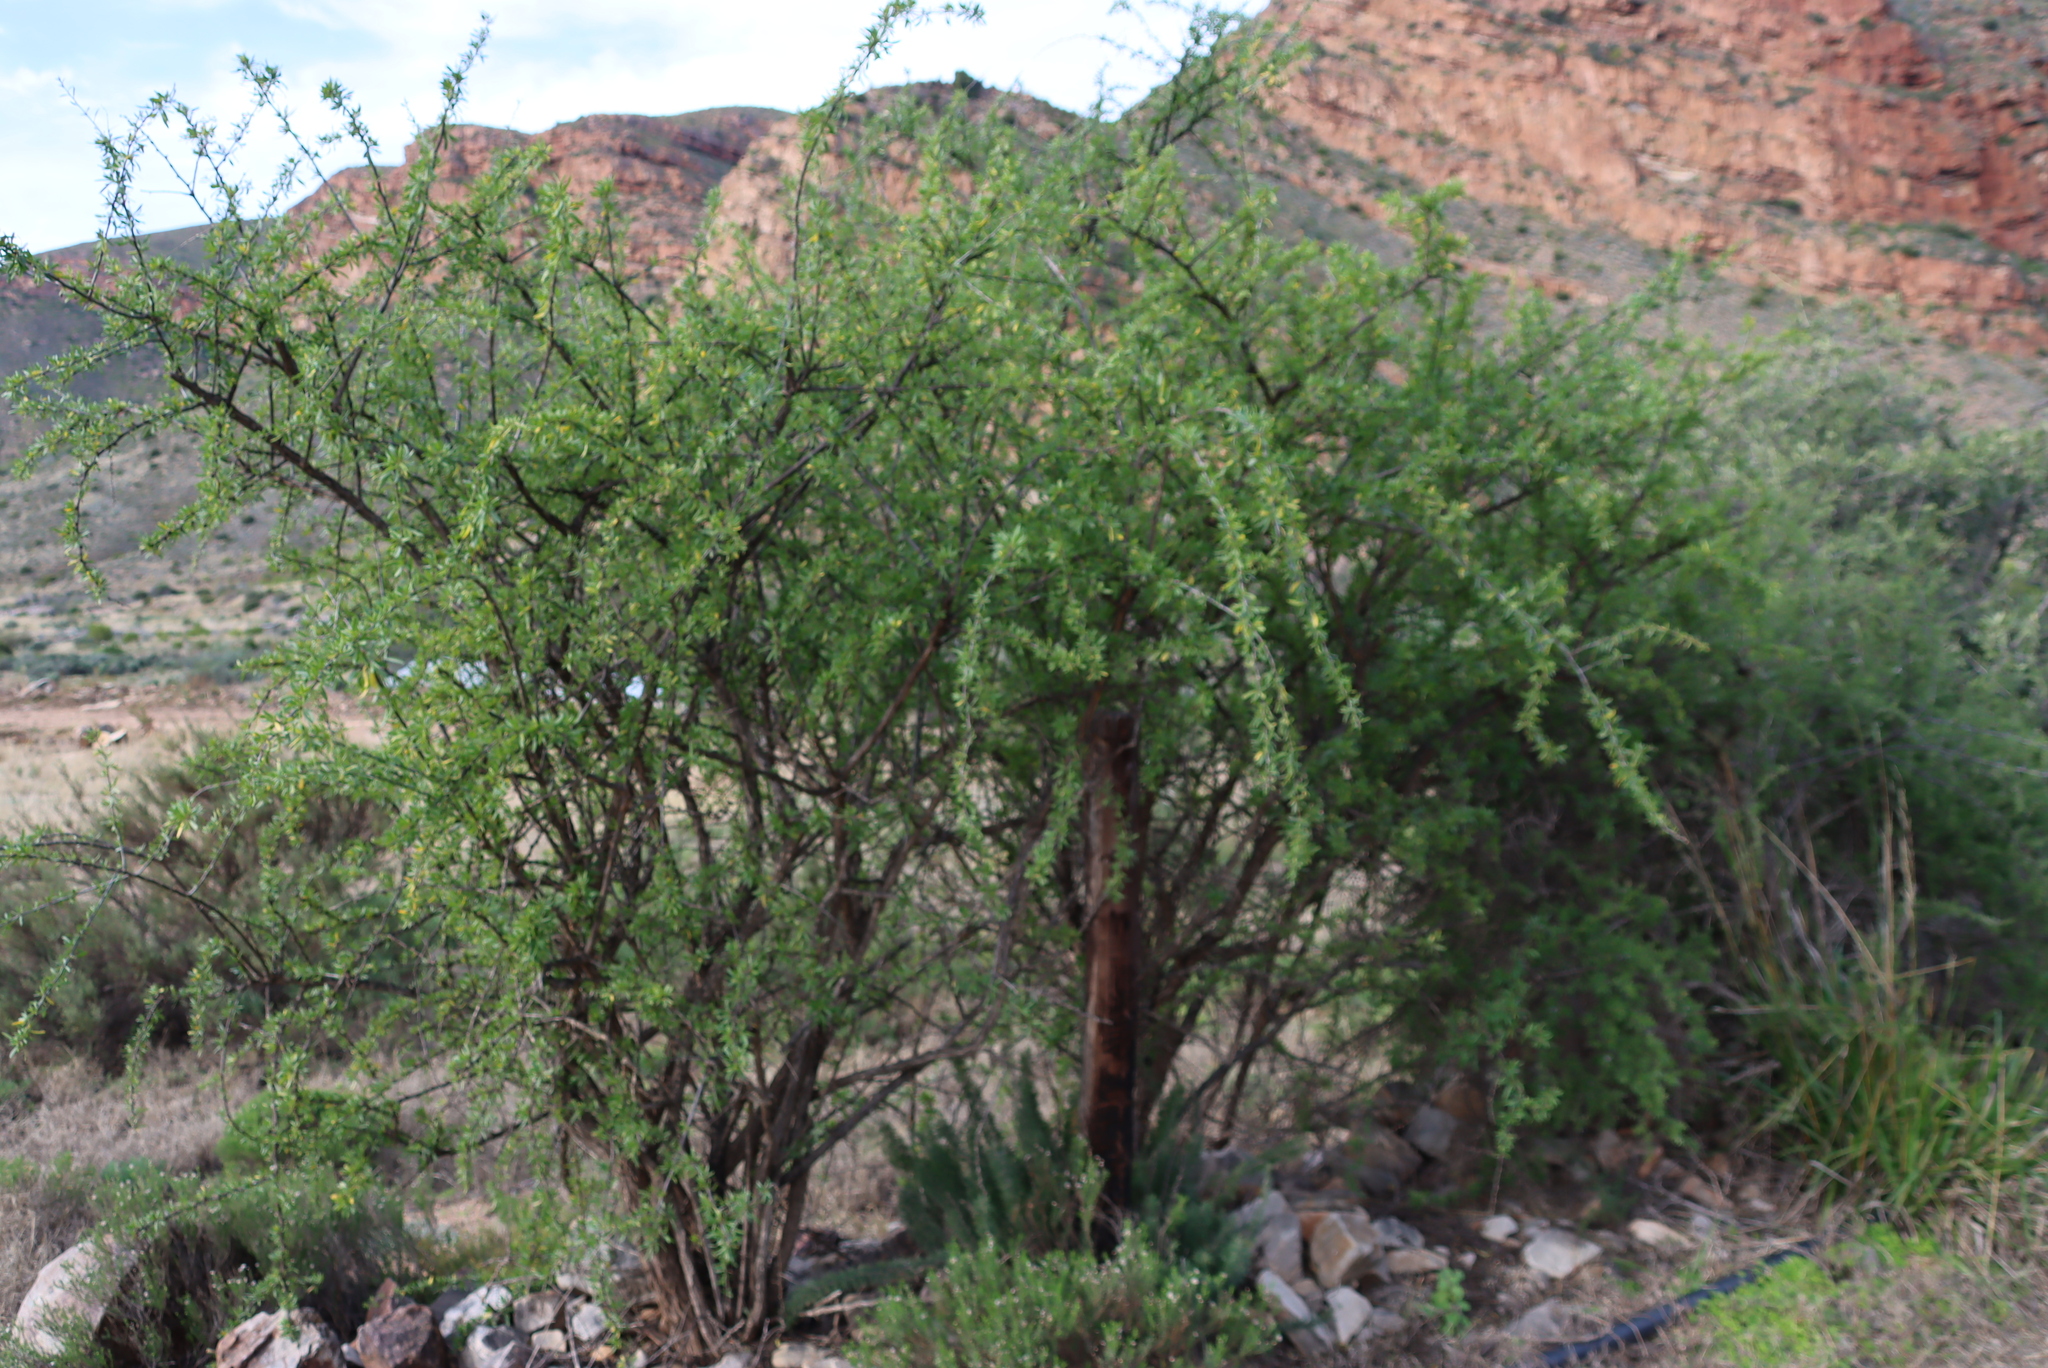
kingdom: Plantae
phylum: Tracheophyta
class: Magnoliopsida
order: Solanales
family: Solanaceae
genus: Lycium
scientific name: Lycium oxycarpum
